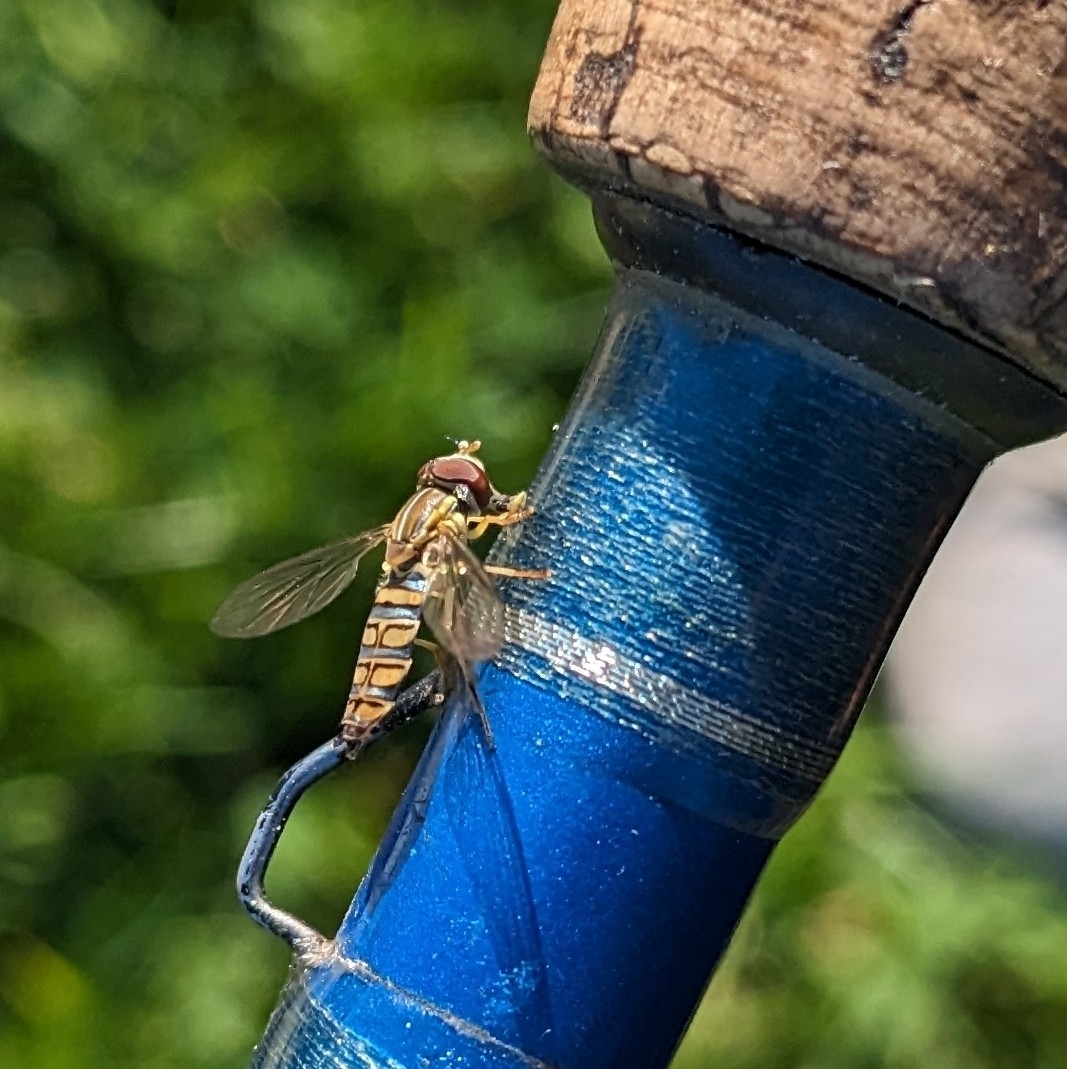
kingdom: Animalia
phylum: Arthropoda
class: Insecta
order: Diptera
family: Syrphidae
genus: Toxomerus
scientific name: Toxomerus politus
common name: Maize calligrapher
